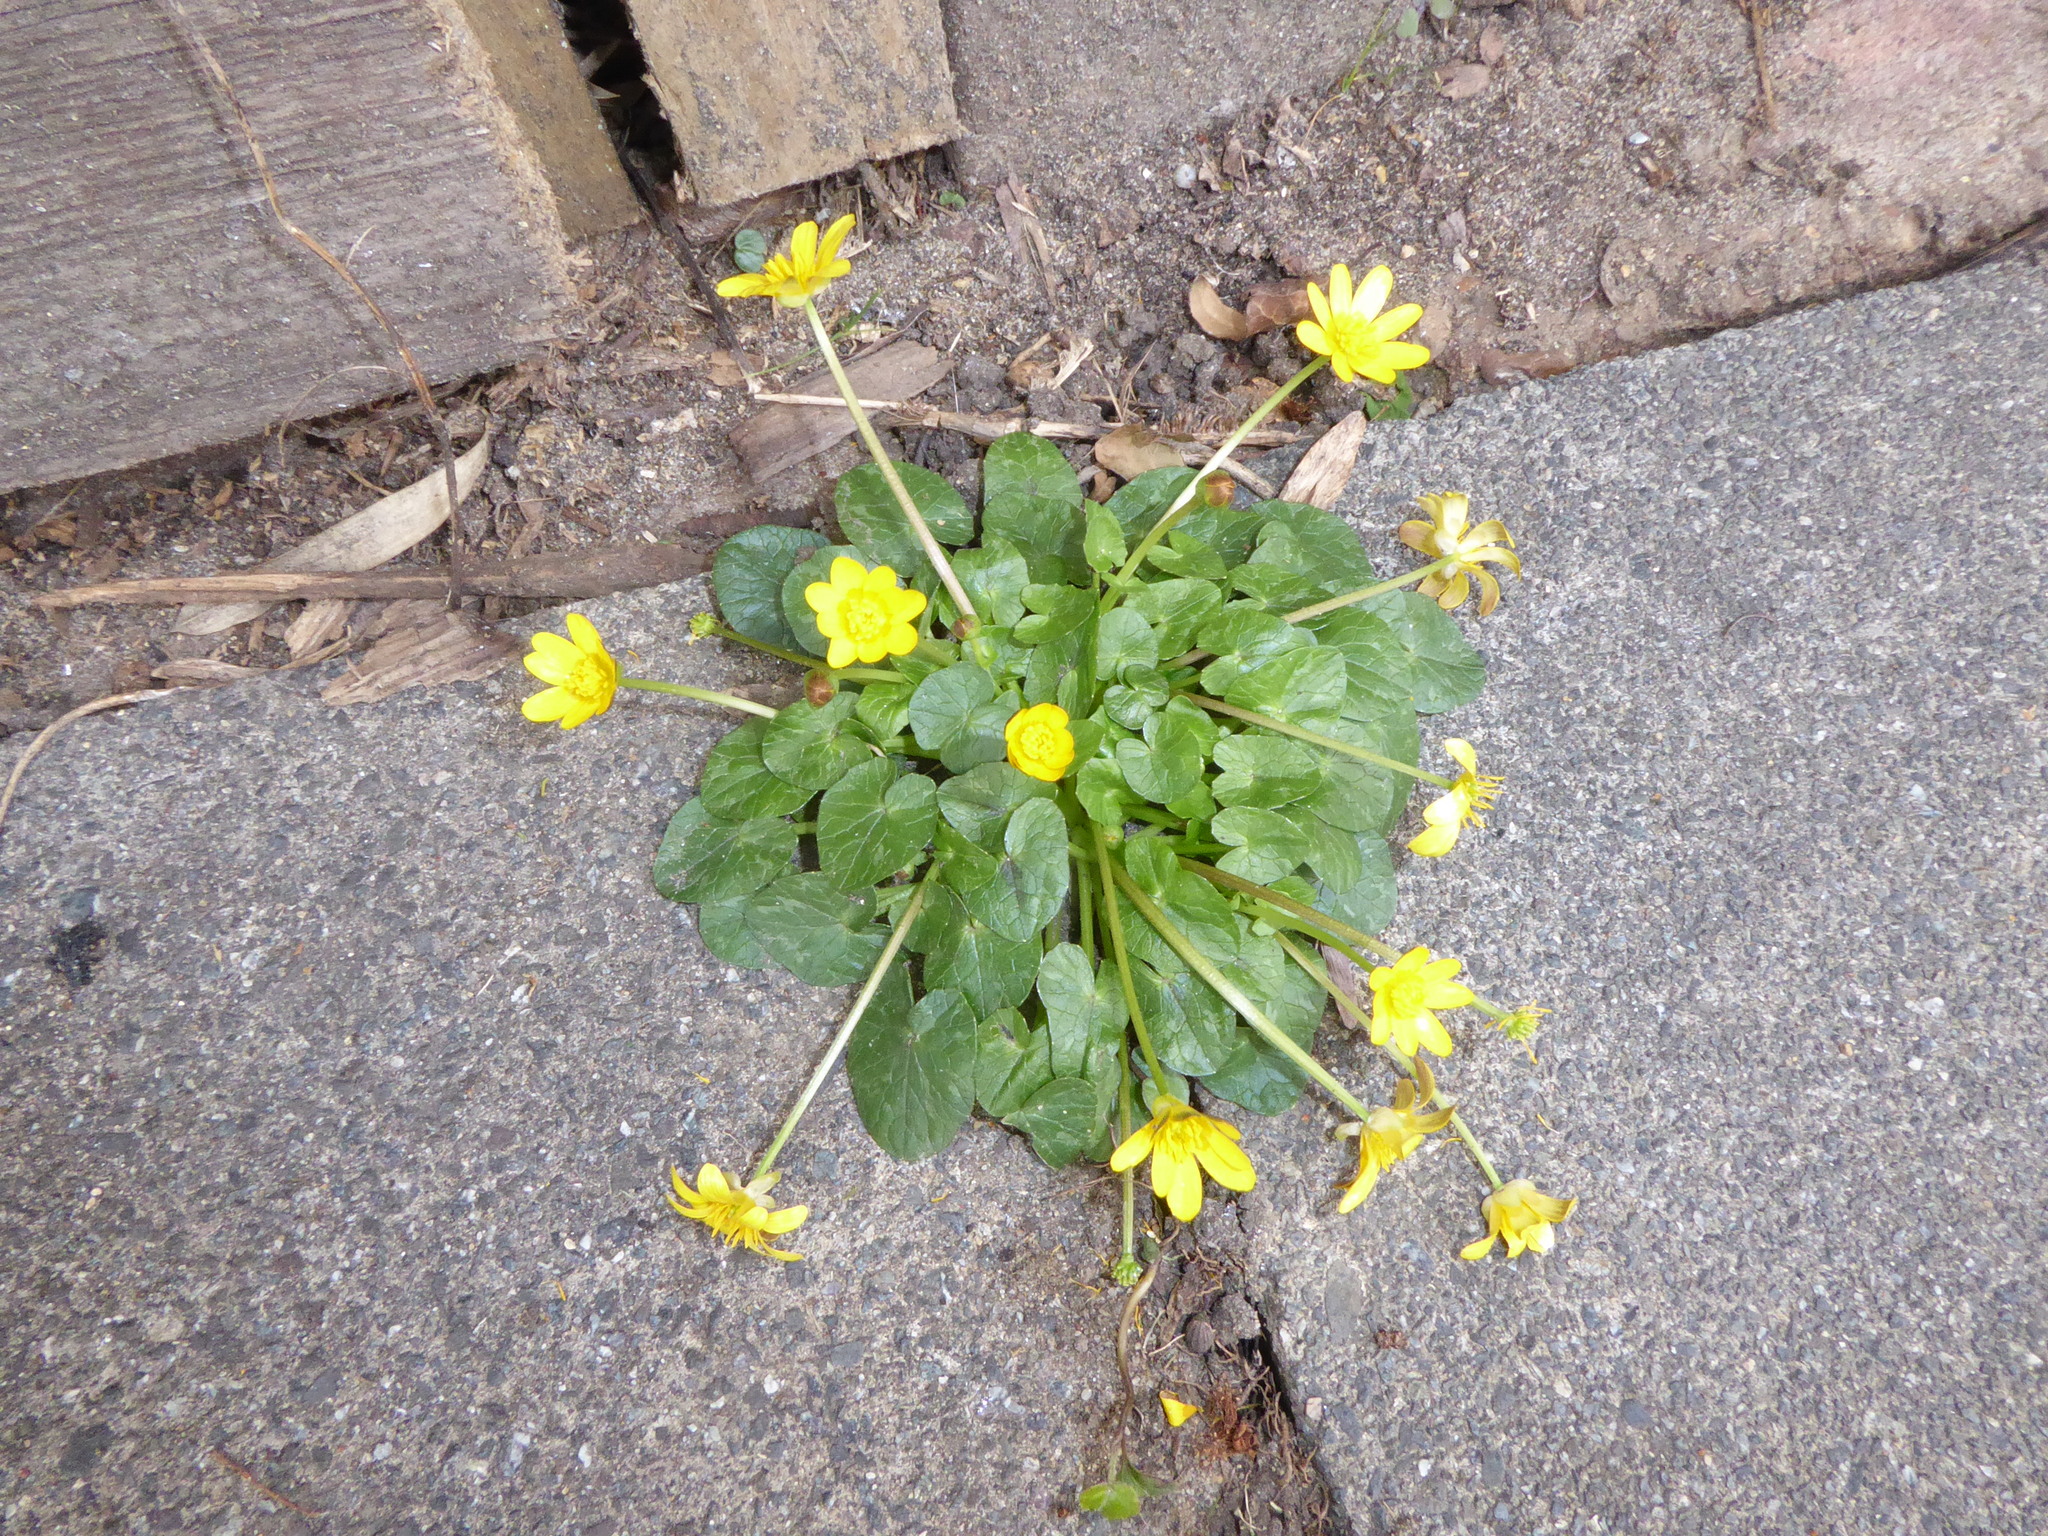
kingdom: Plantae
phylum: Tracheophyta
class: Magnoliopsida
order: Ranunculales
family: Ranunculaceae
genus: Ficaria
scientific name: Ficaria verna
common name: Lesser celandine
